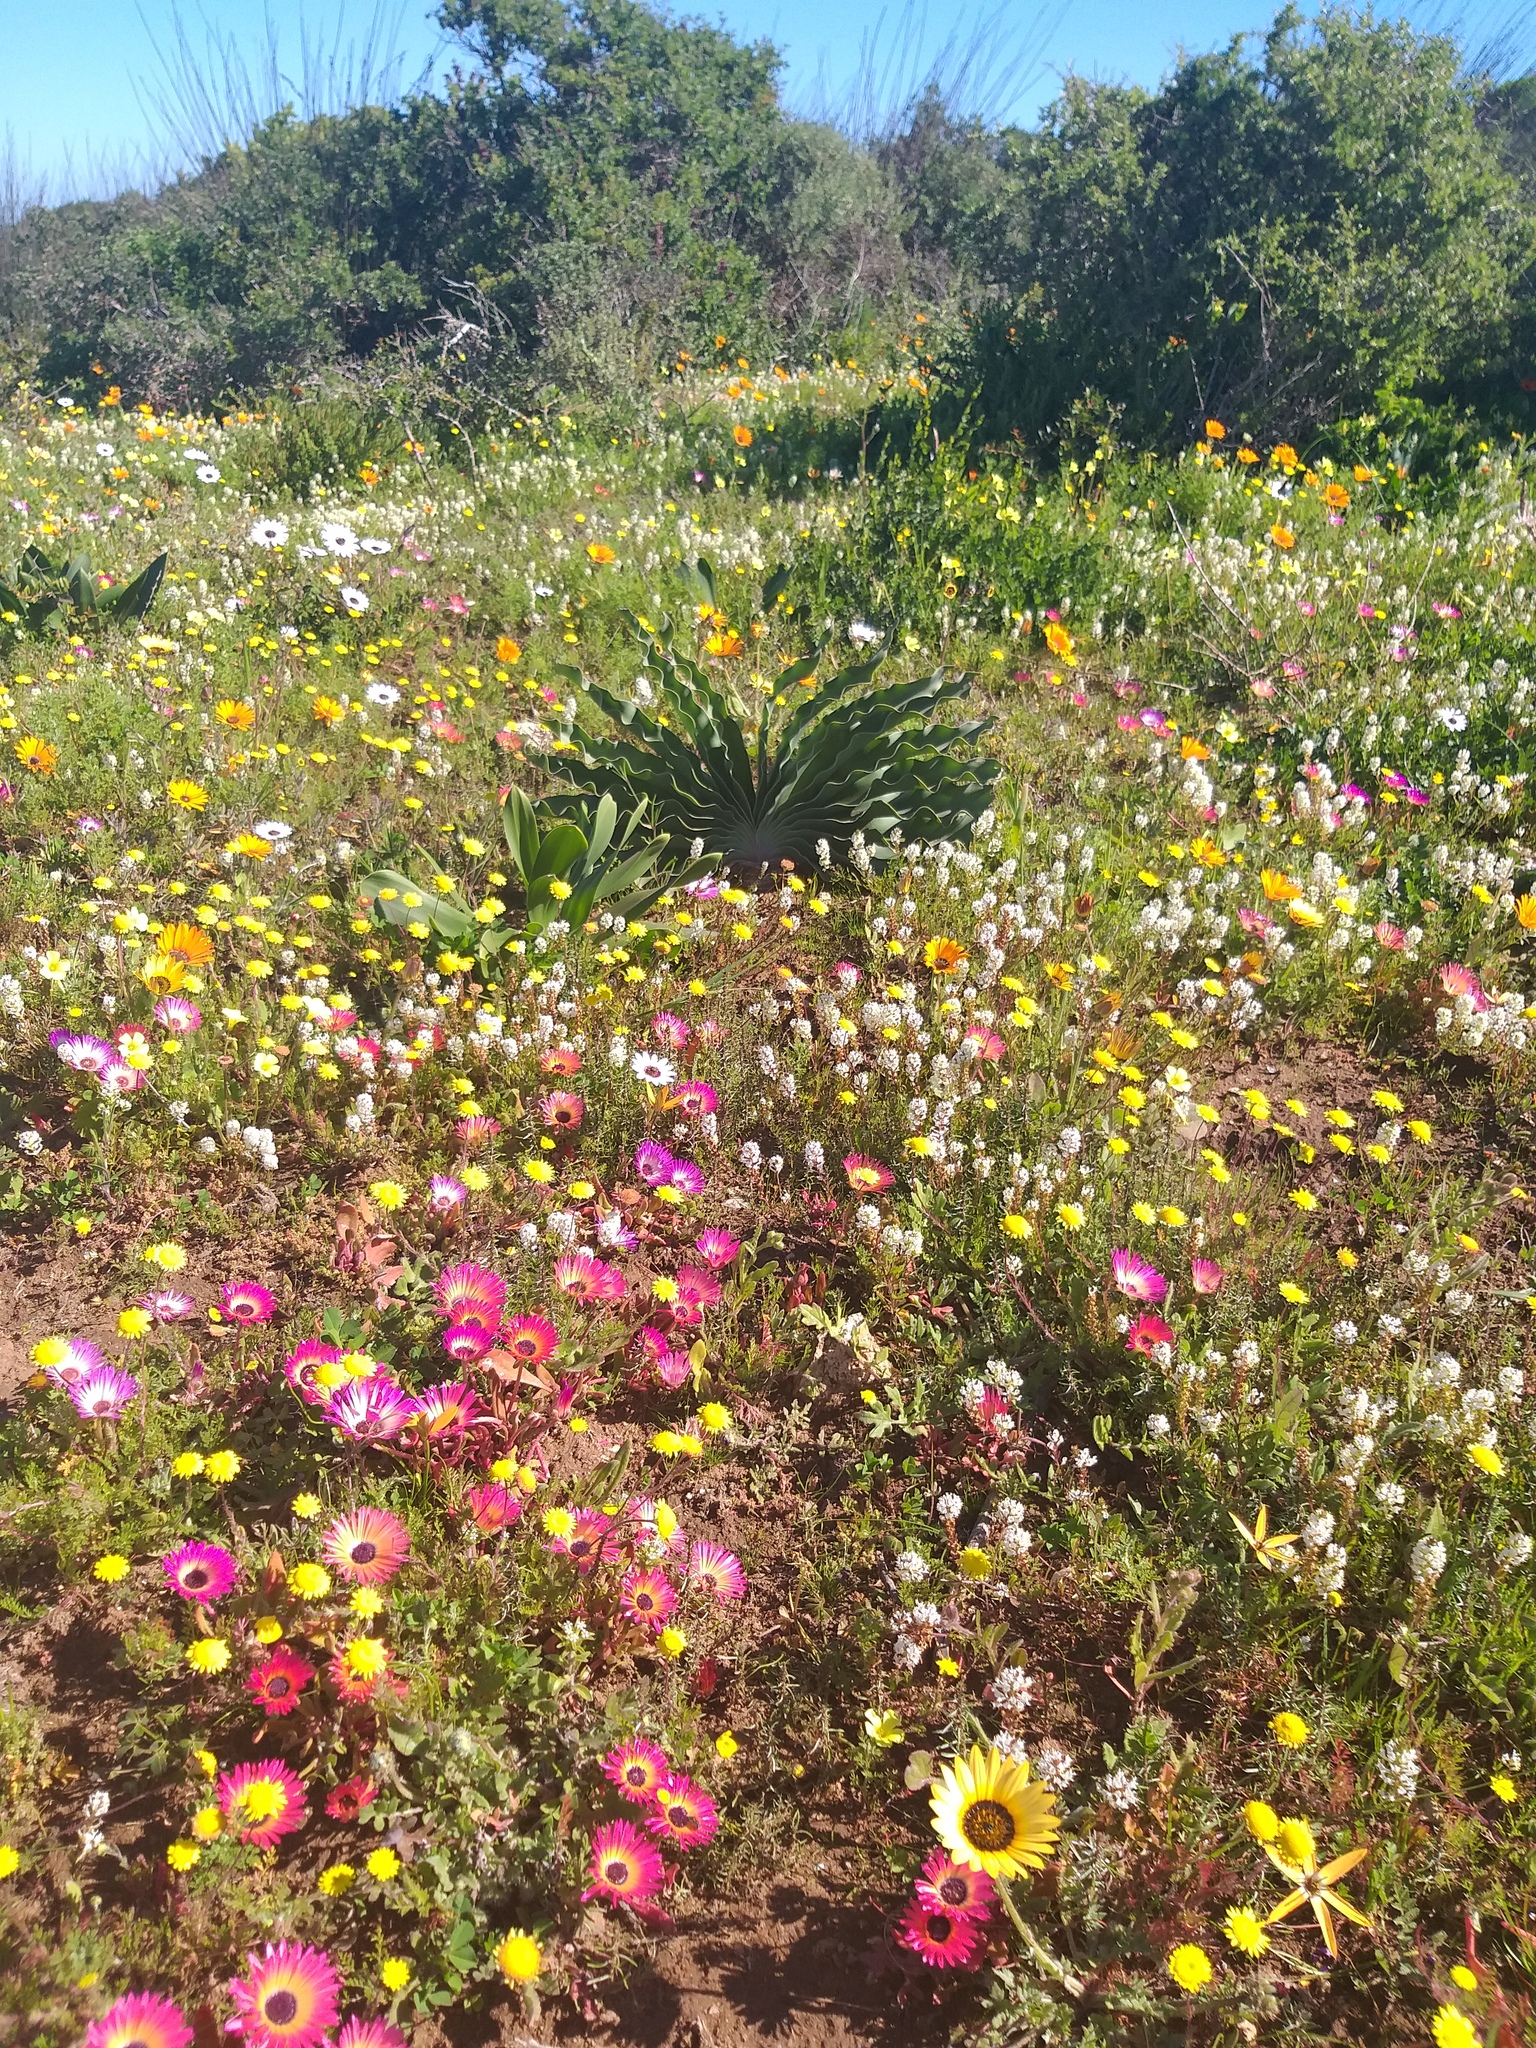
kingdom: Plantae
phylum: Tracheophyta
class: Liliopsida
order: Asparagales
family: Amaryllidaceae
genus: Boophone
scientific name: Boophone haemanthoides
